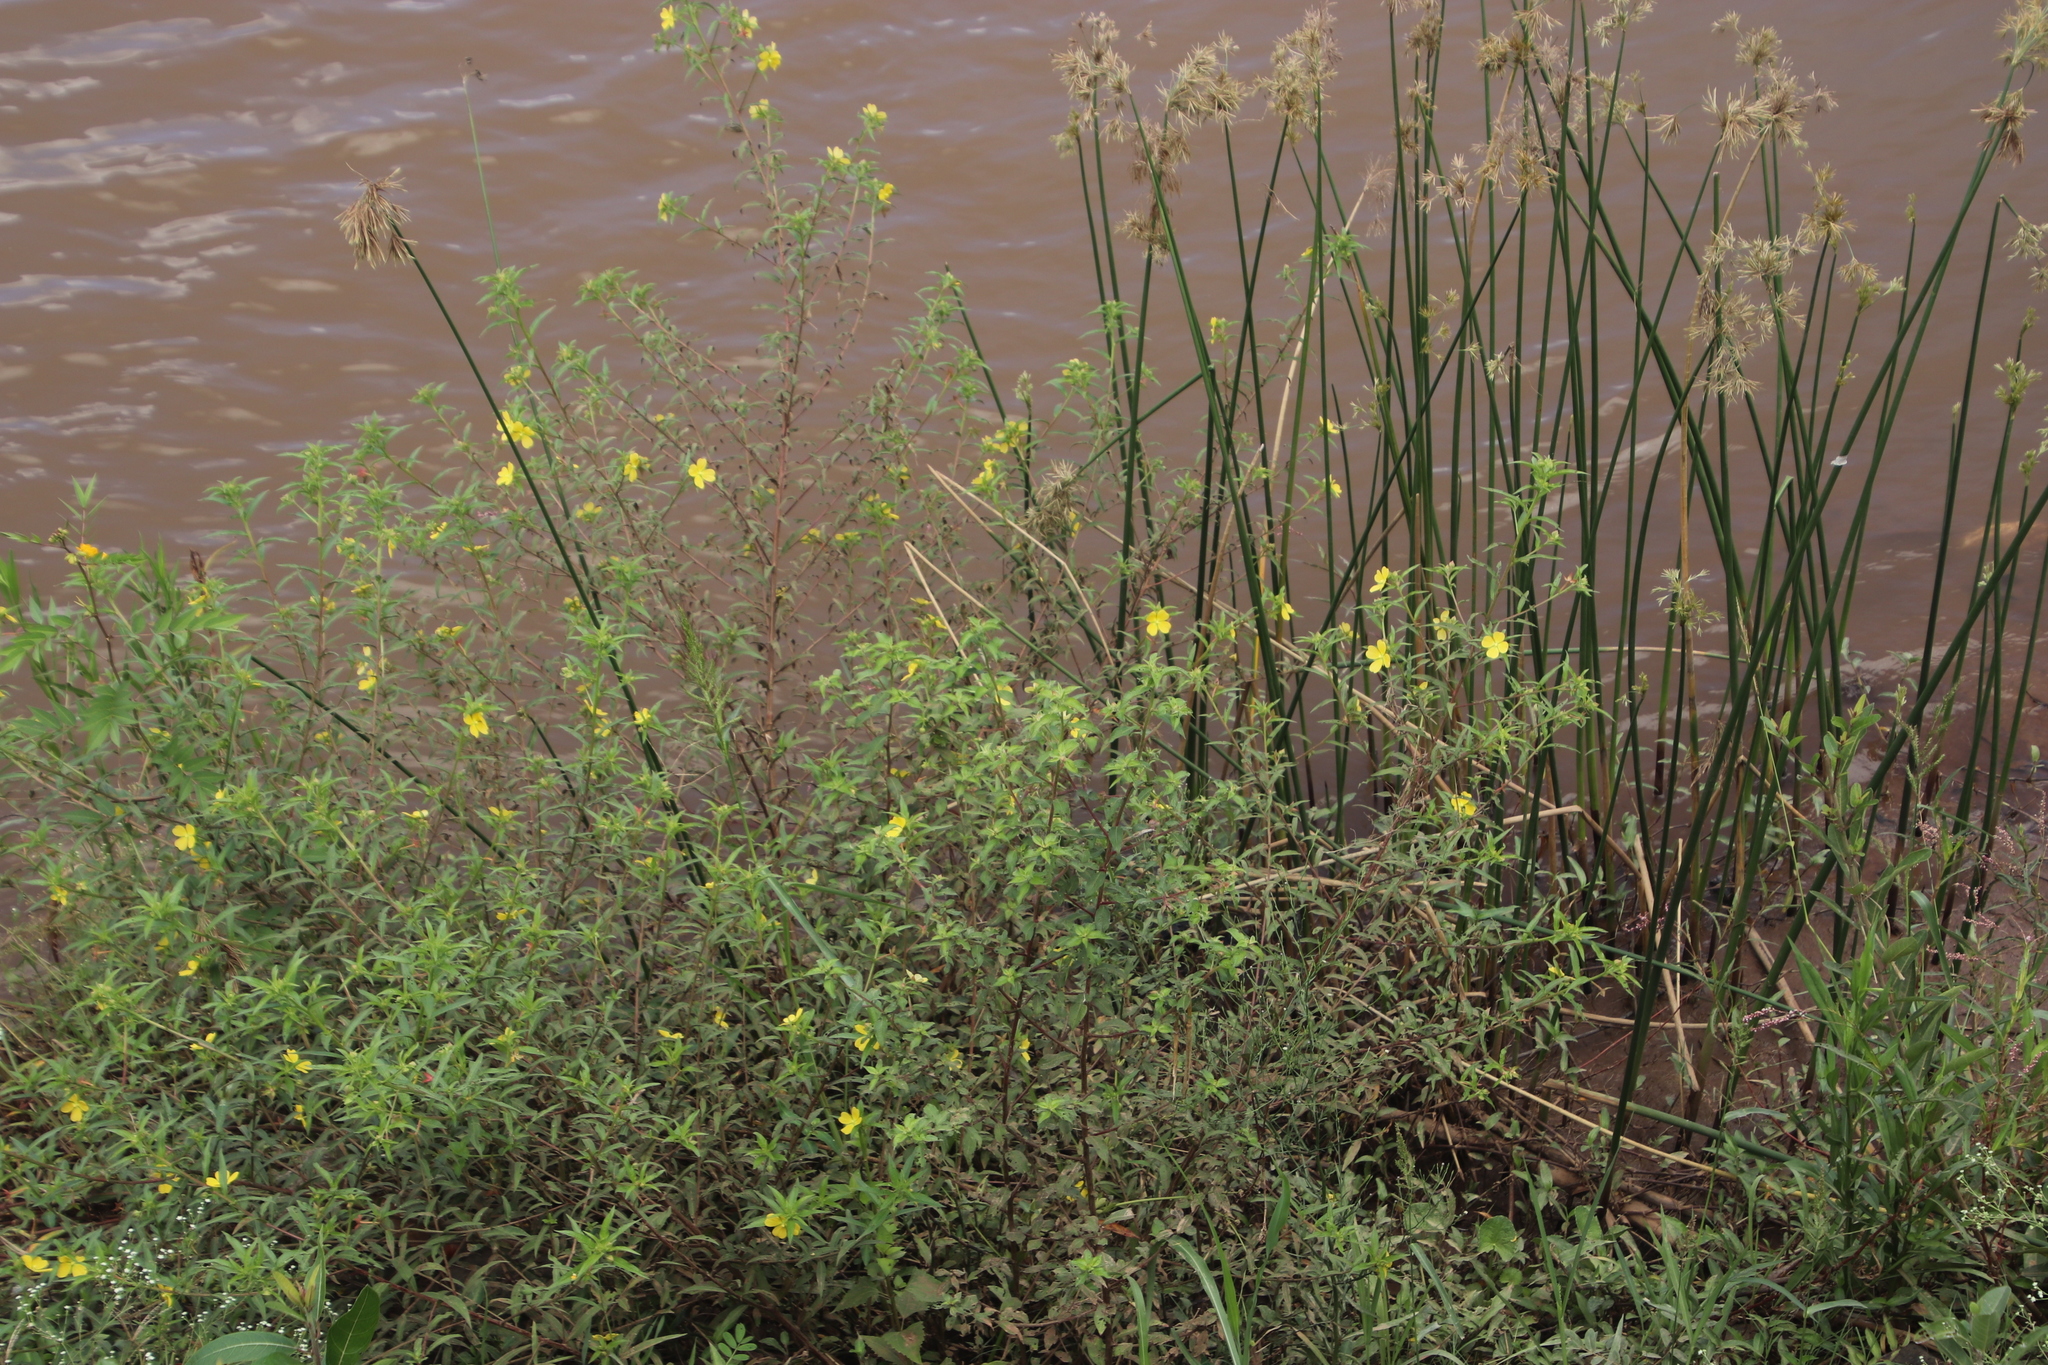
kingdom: Plantae
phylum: Tracheophyta
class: Magnoliopsida
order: Myrtales
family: Onagraceae
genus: Ludwigia
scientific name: Ludwigia octovalvis
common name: Water-primrose
